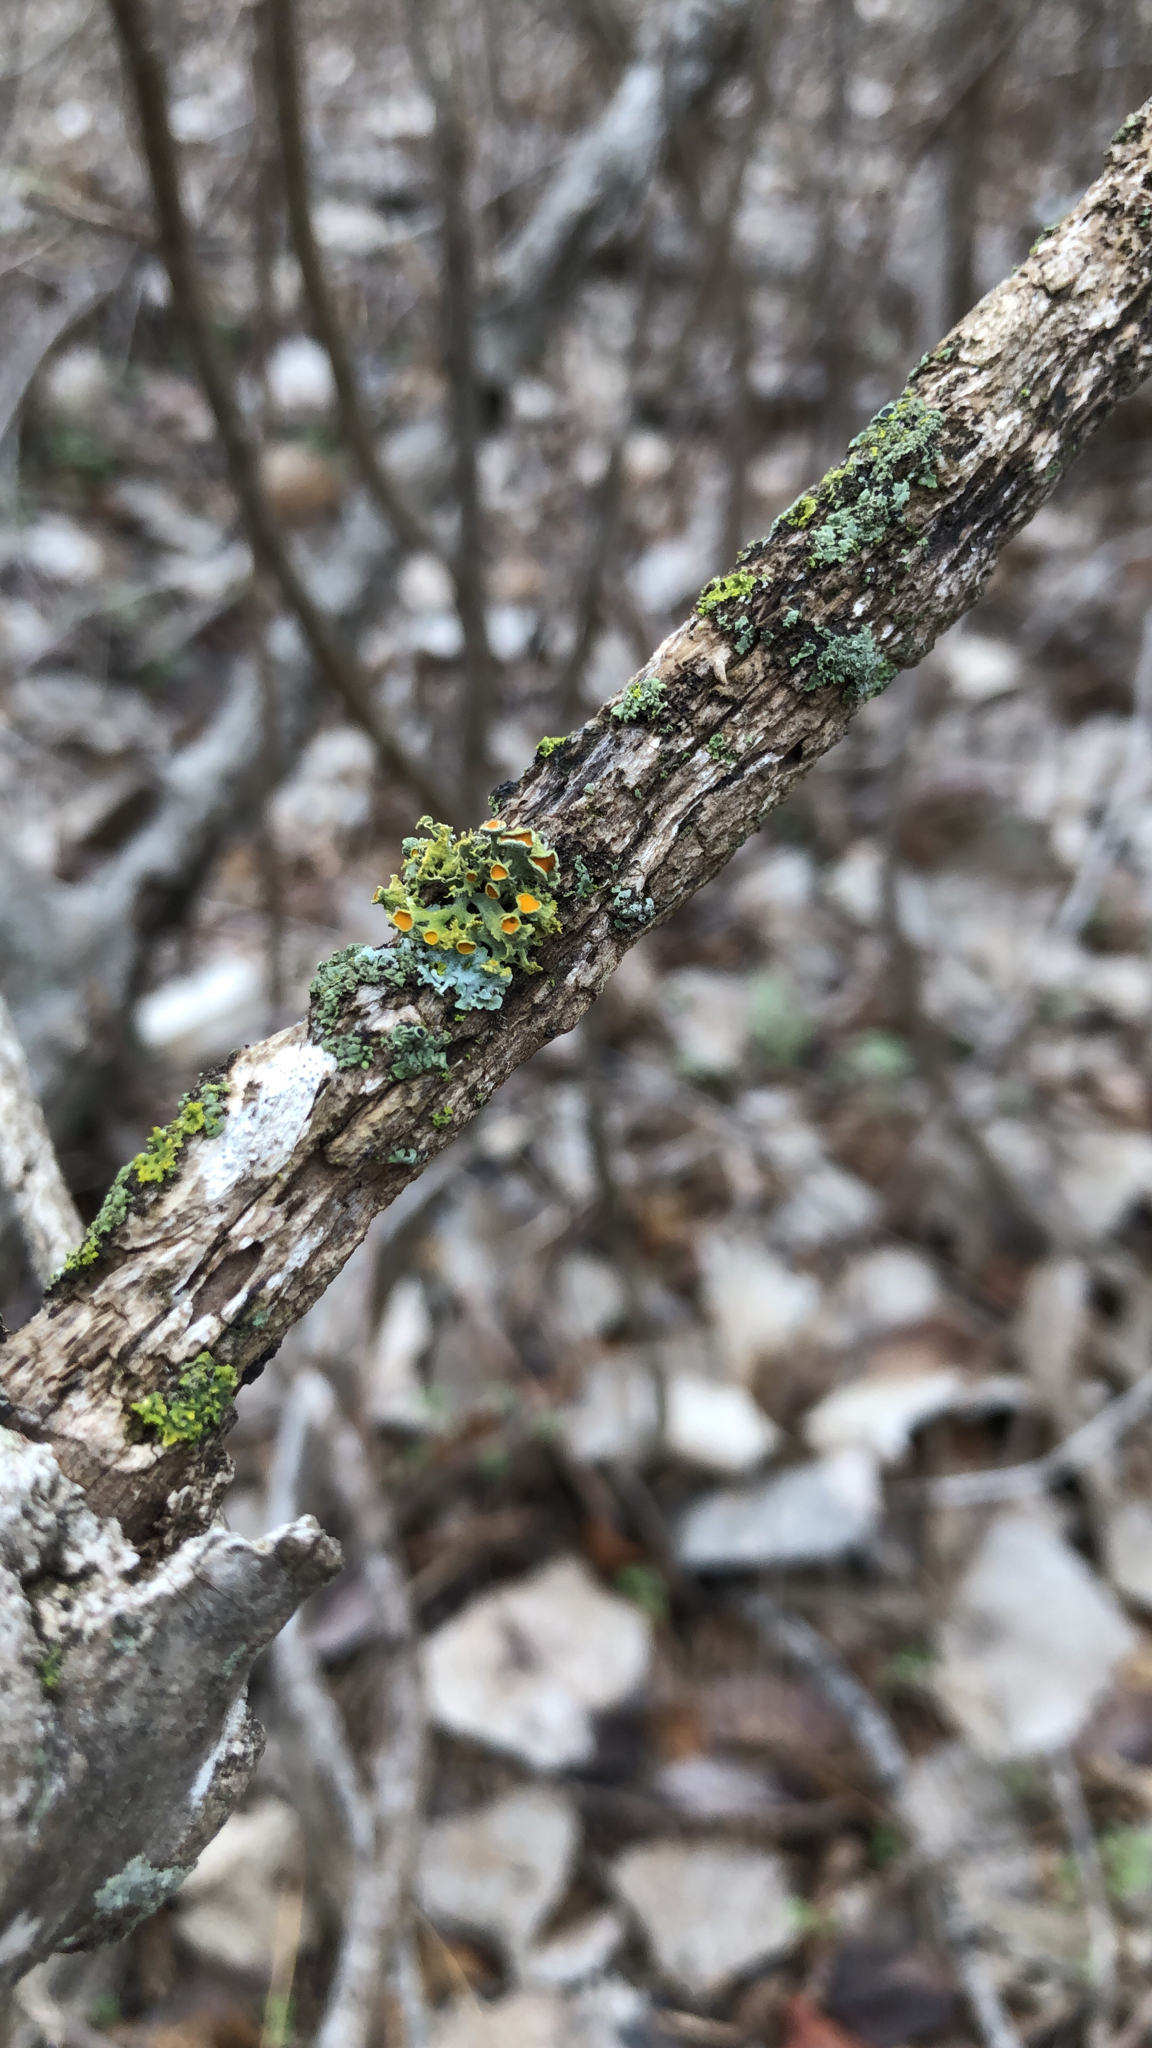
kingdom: Fungi
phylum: Ascomycota
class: Lecanoromycetes
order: Teloschistales
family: Teloschistaceae
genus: Niorma
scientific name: Niorma chrysophthalma
